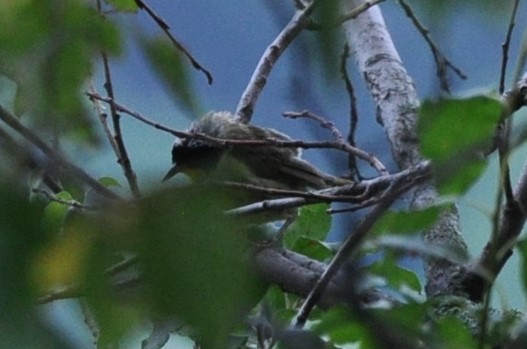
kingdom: Animalia
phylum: Chordata
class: Aves
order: Passeriformes
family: Parulidae
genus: Geothlypis
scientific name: Geothlypis trichas
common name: Common yellowthroat
